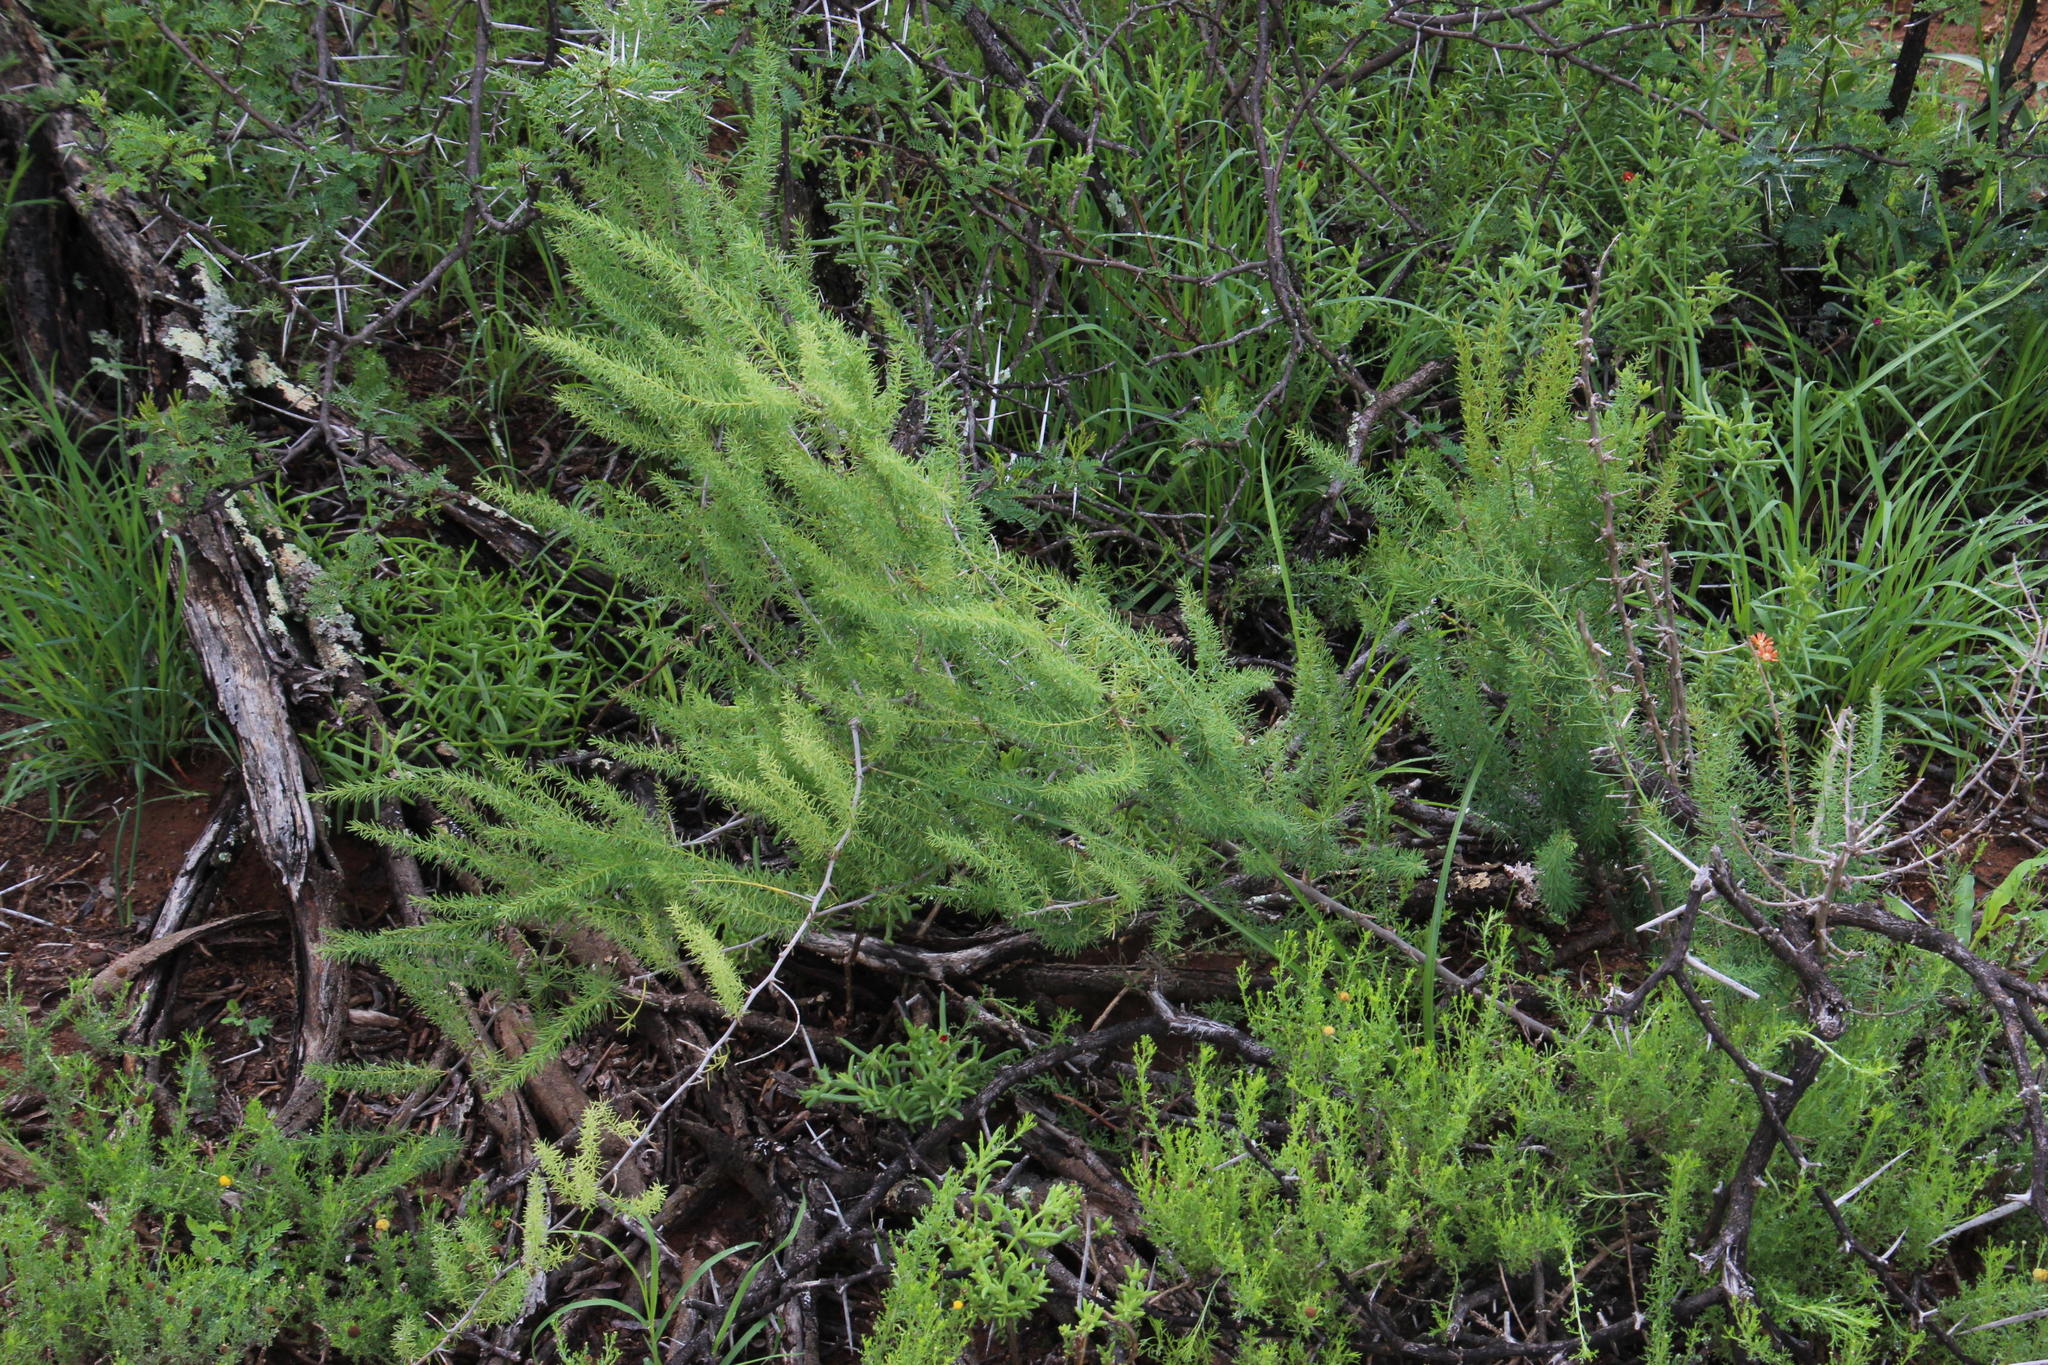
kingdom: Plantae
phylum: Tracheophyta
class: Liliopsida
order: Asparagales
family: Asparagaceae
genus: Asparagus
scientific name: Asparagus aethiopicus
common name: Sprenger's asparagus fern
